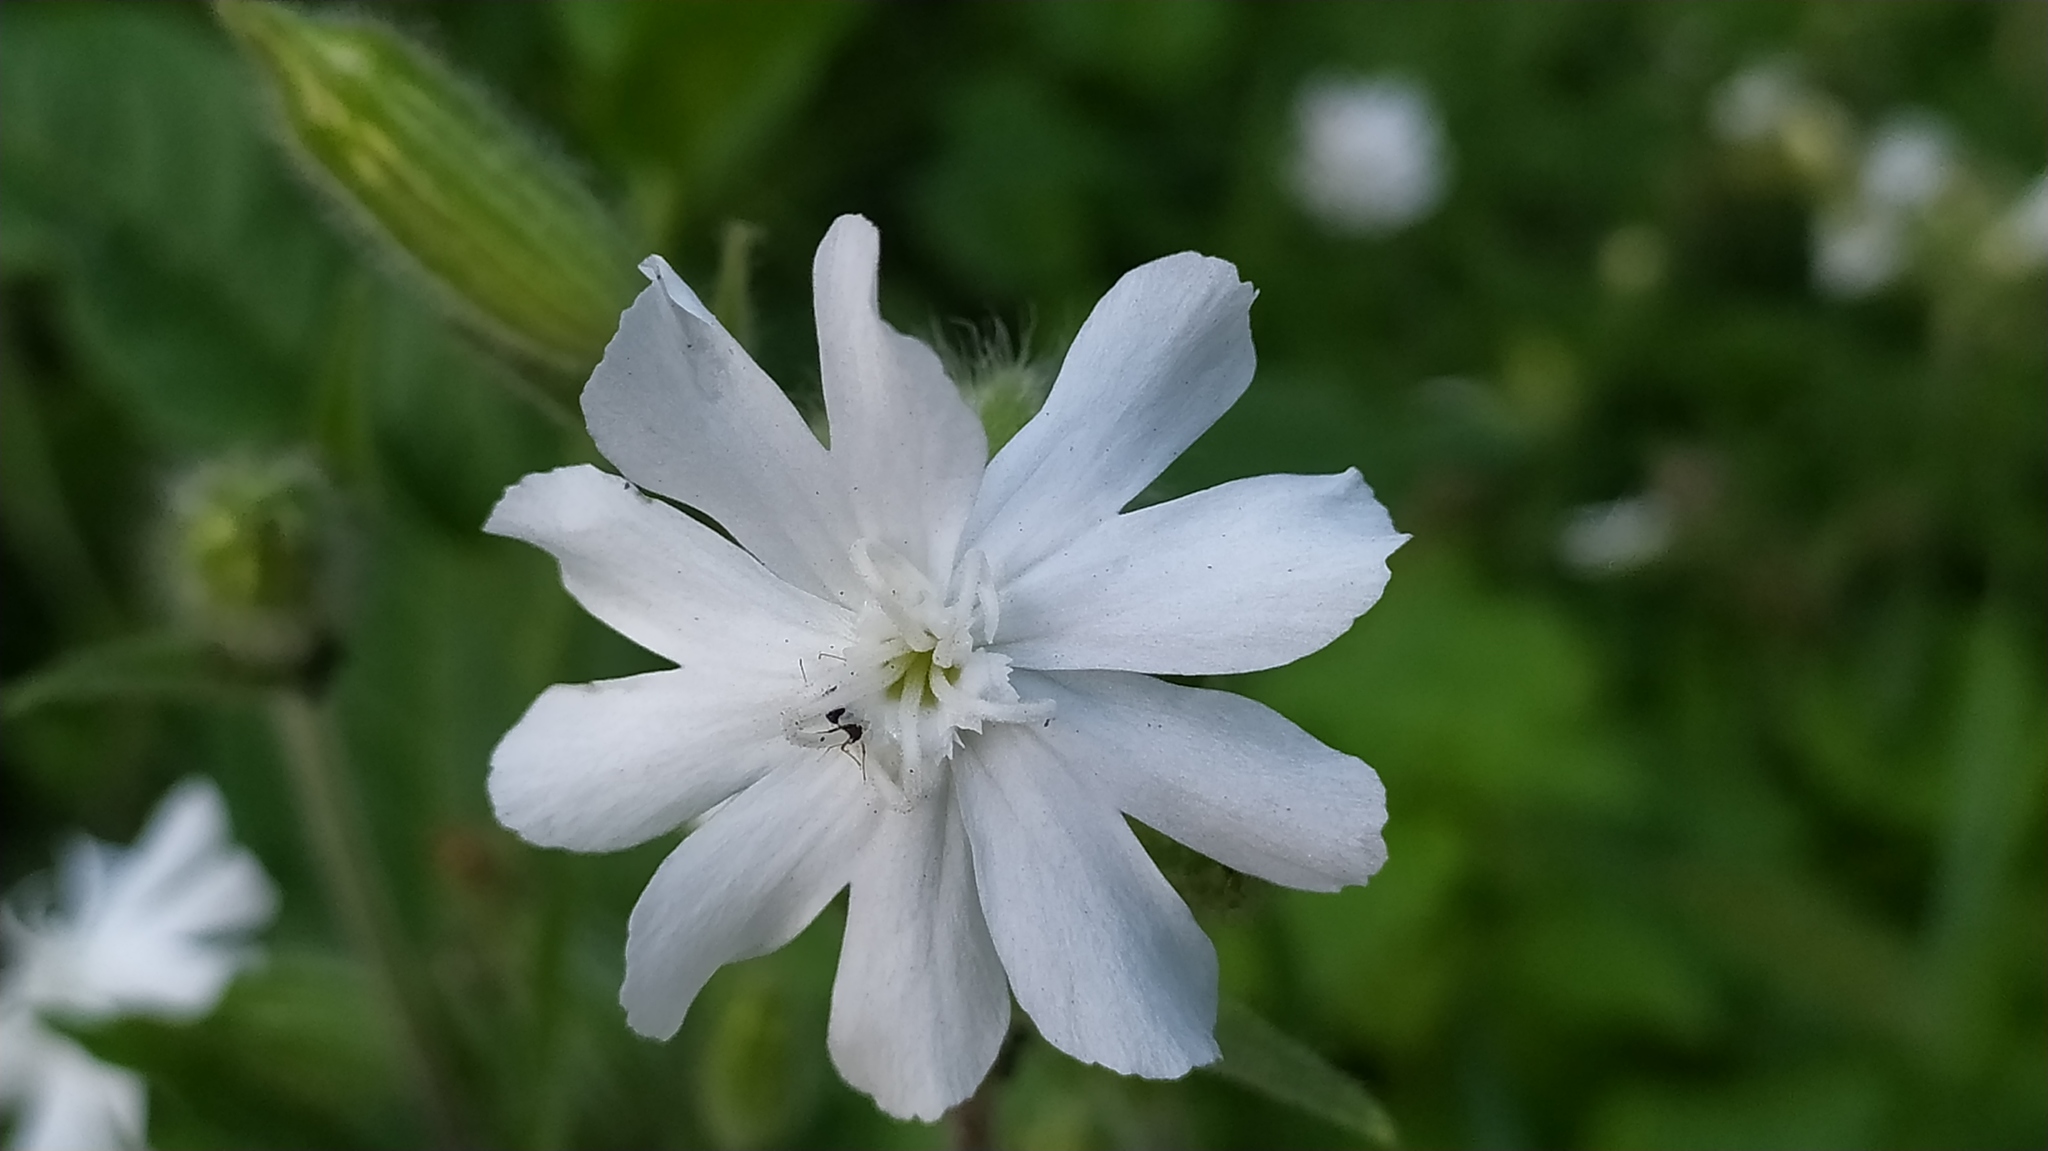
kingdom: Plantae
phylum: Tracheophyta
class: Magnoliopsida
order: Caryophyllales
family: Caryophyllaceae
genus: Silene
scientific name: Silene latifolia
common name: White campion
